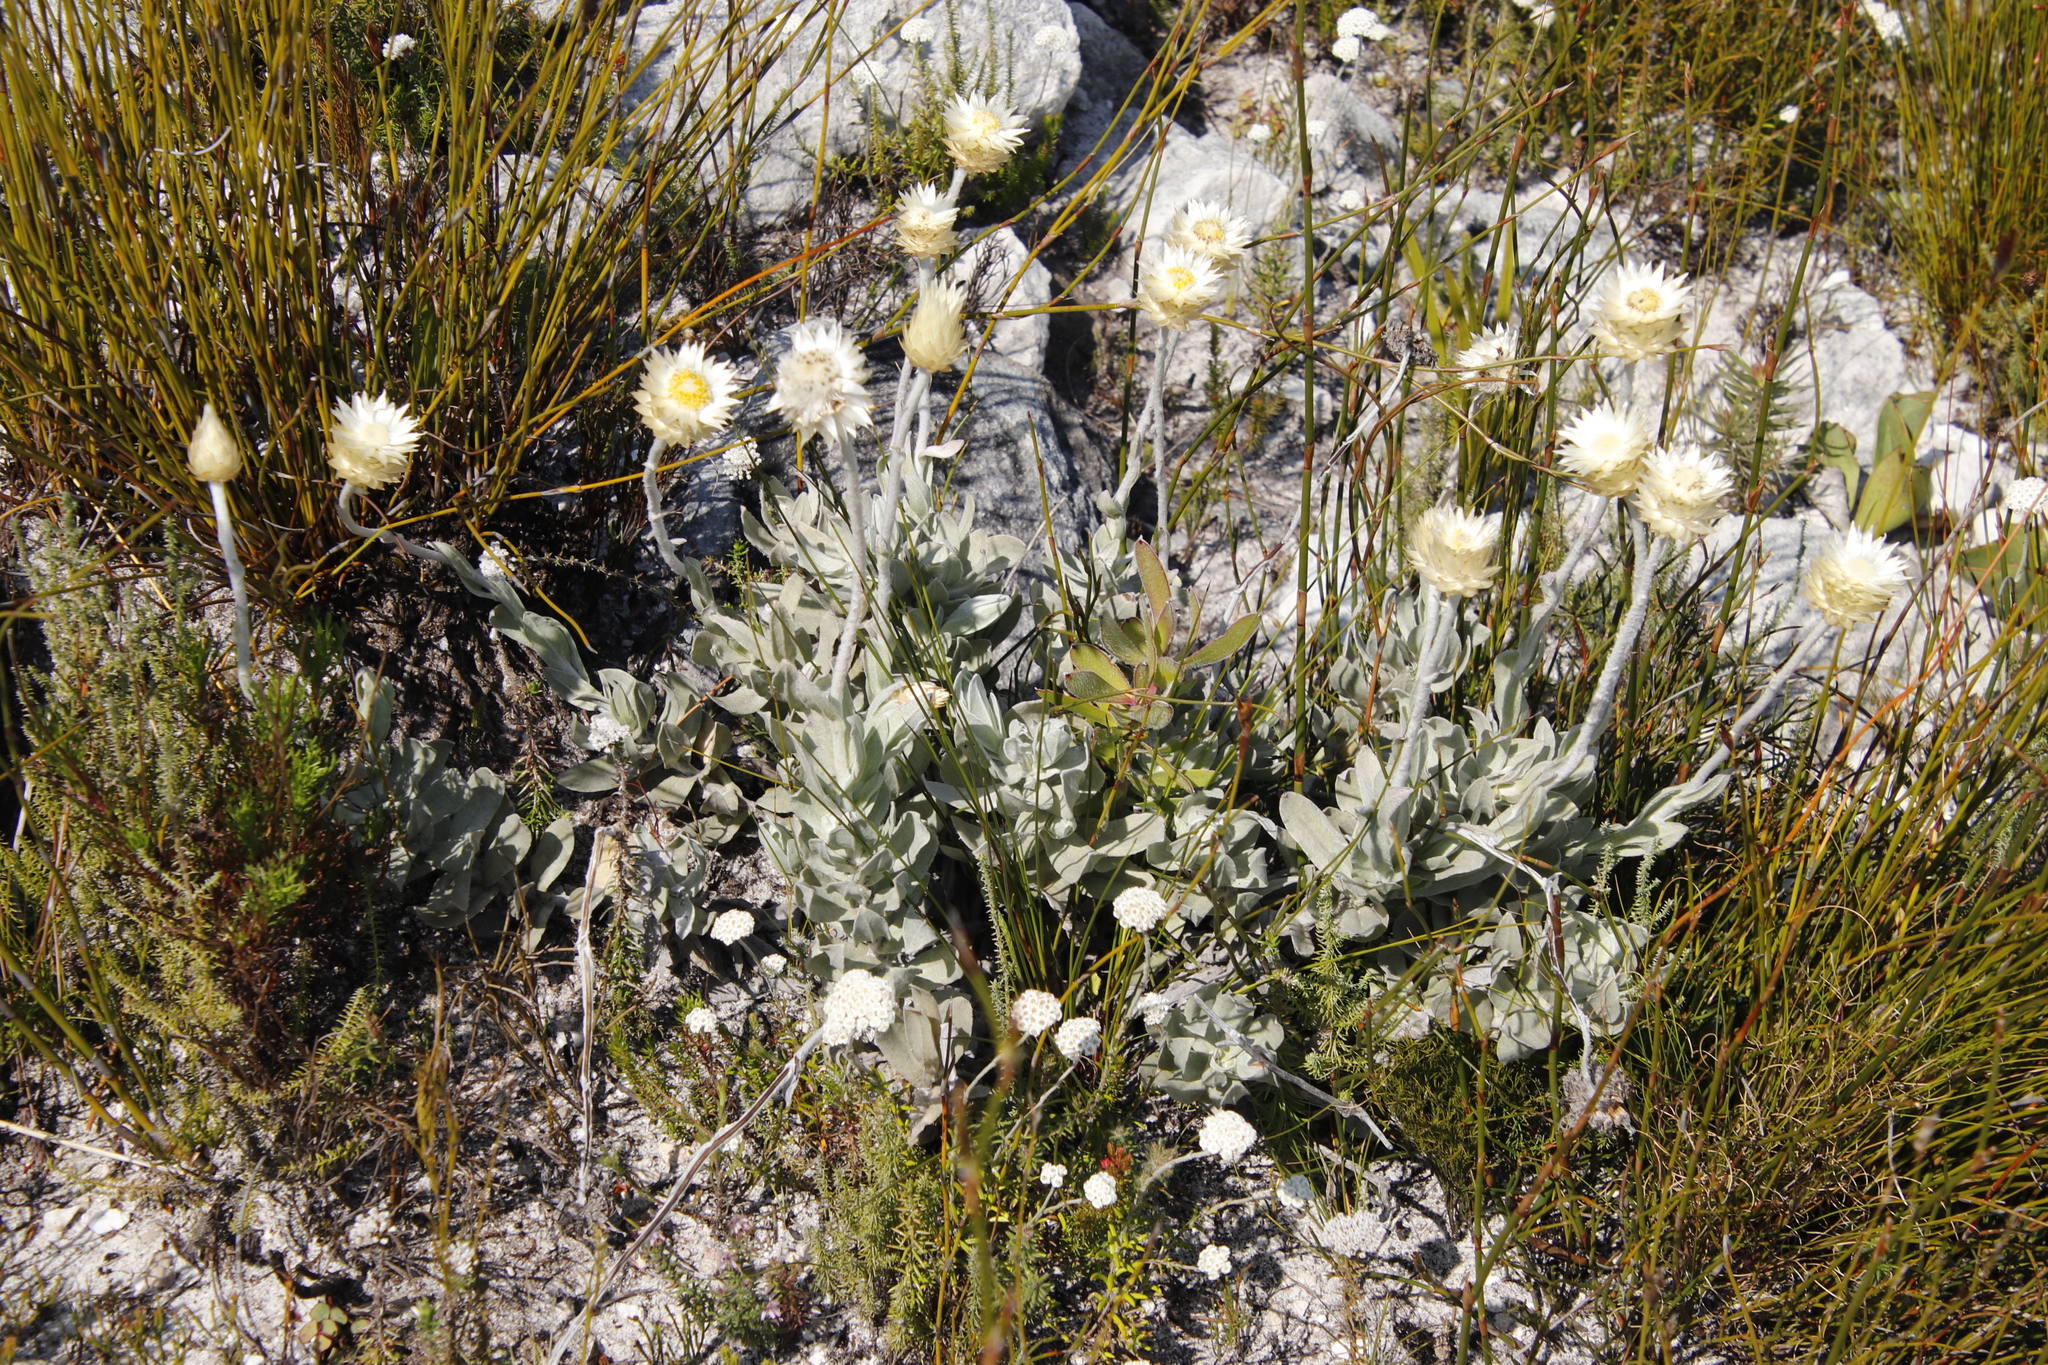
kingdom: Plantae
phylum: Tracheophyta
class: Magnoliopsida
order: Asterales
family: Asteraceae
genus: Syncarpha
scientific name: Syncarpha speciosissima
